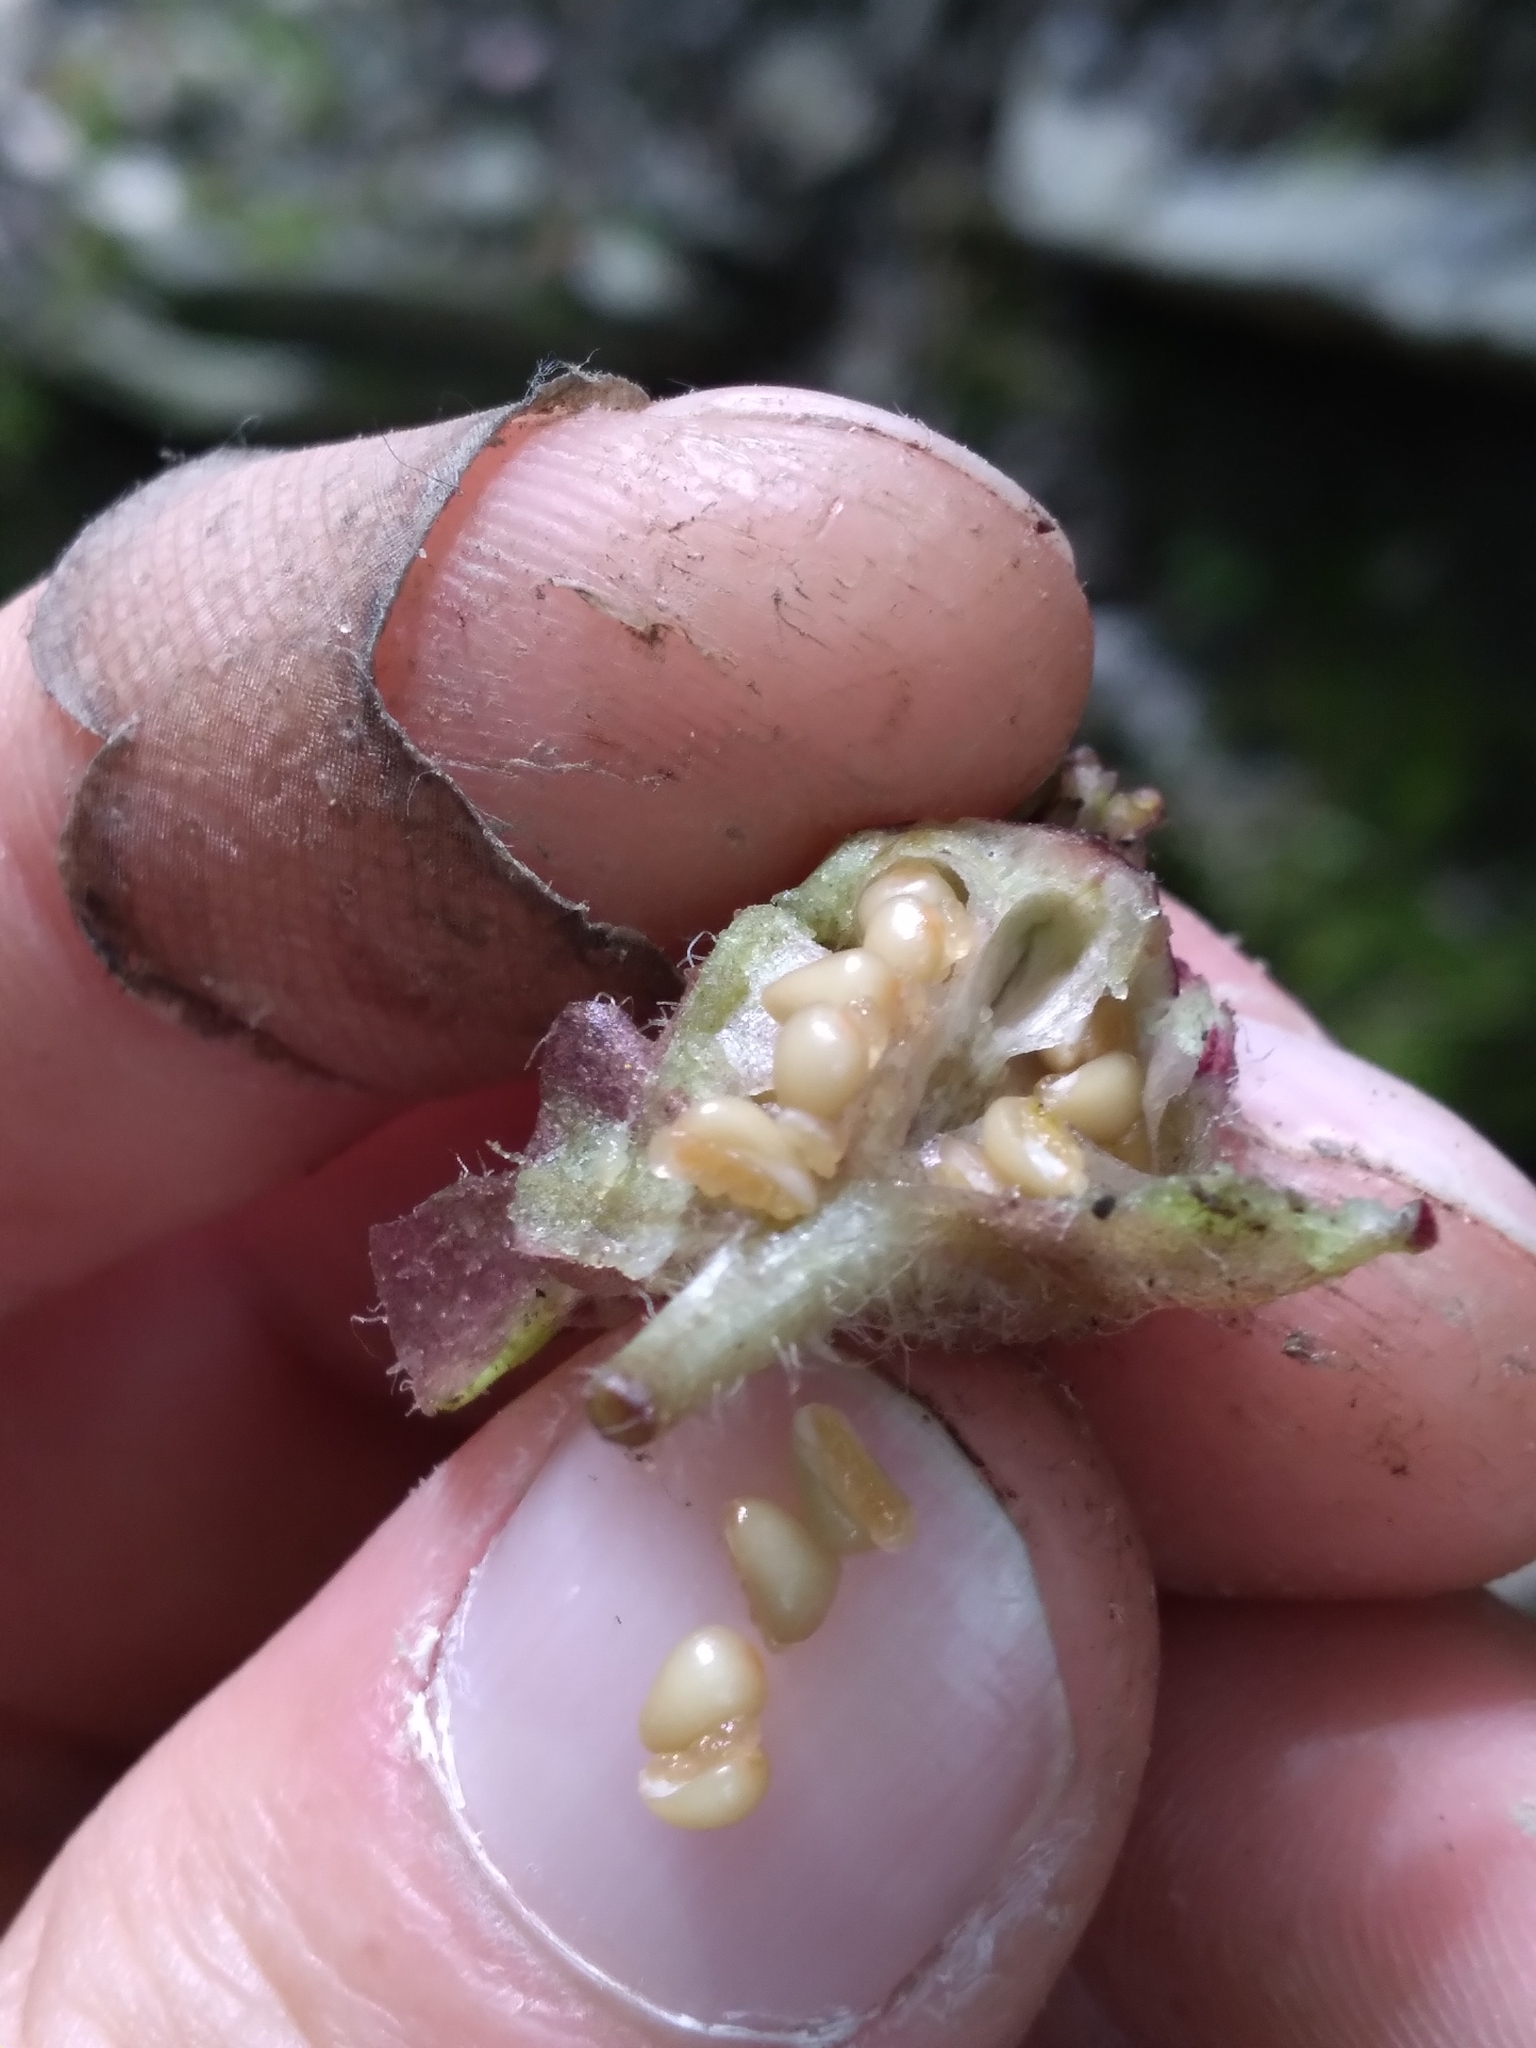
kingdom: Plantae
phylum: Tracheophyta
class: Magnoliopsida
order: Piperales
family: Aristolochiaceae
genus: Asarum
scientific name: Asarum canadense
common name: Wild ginger
